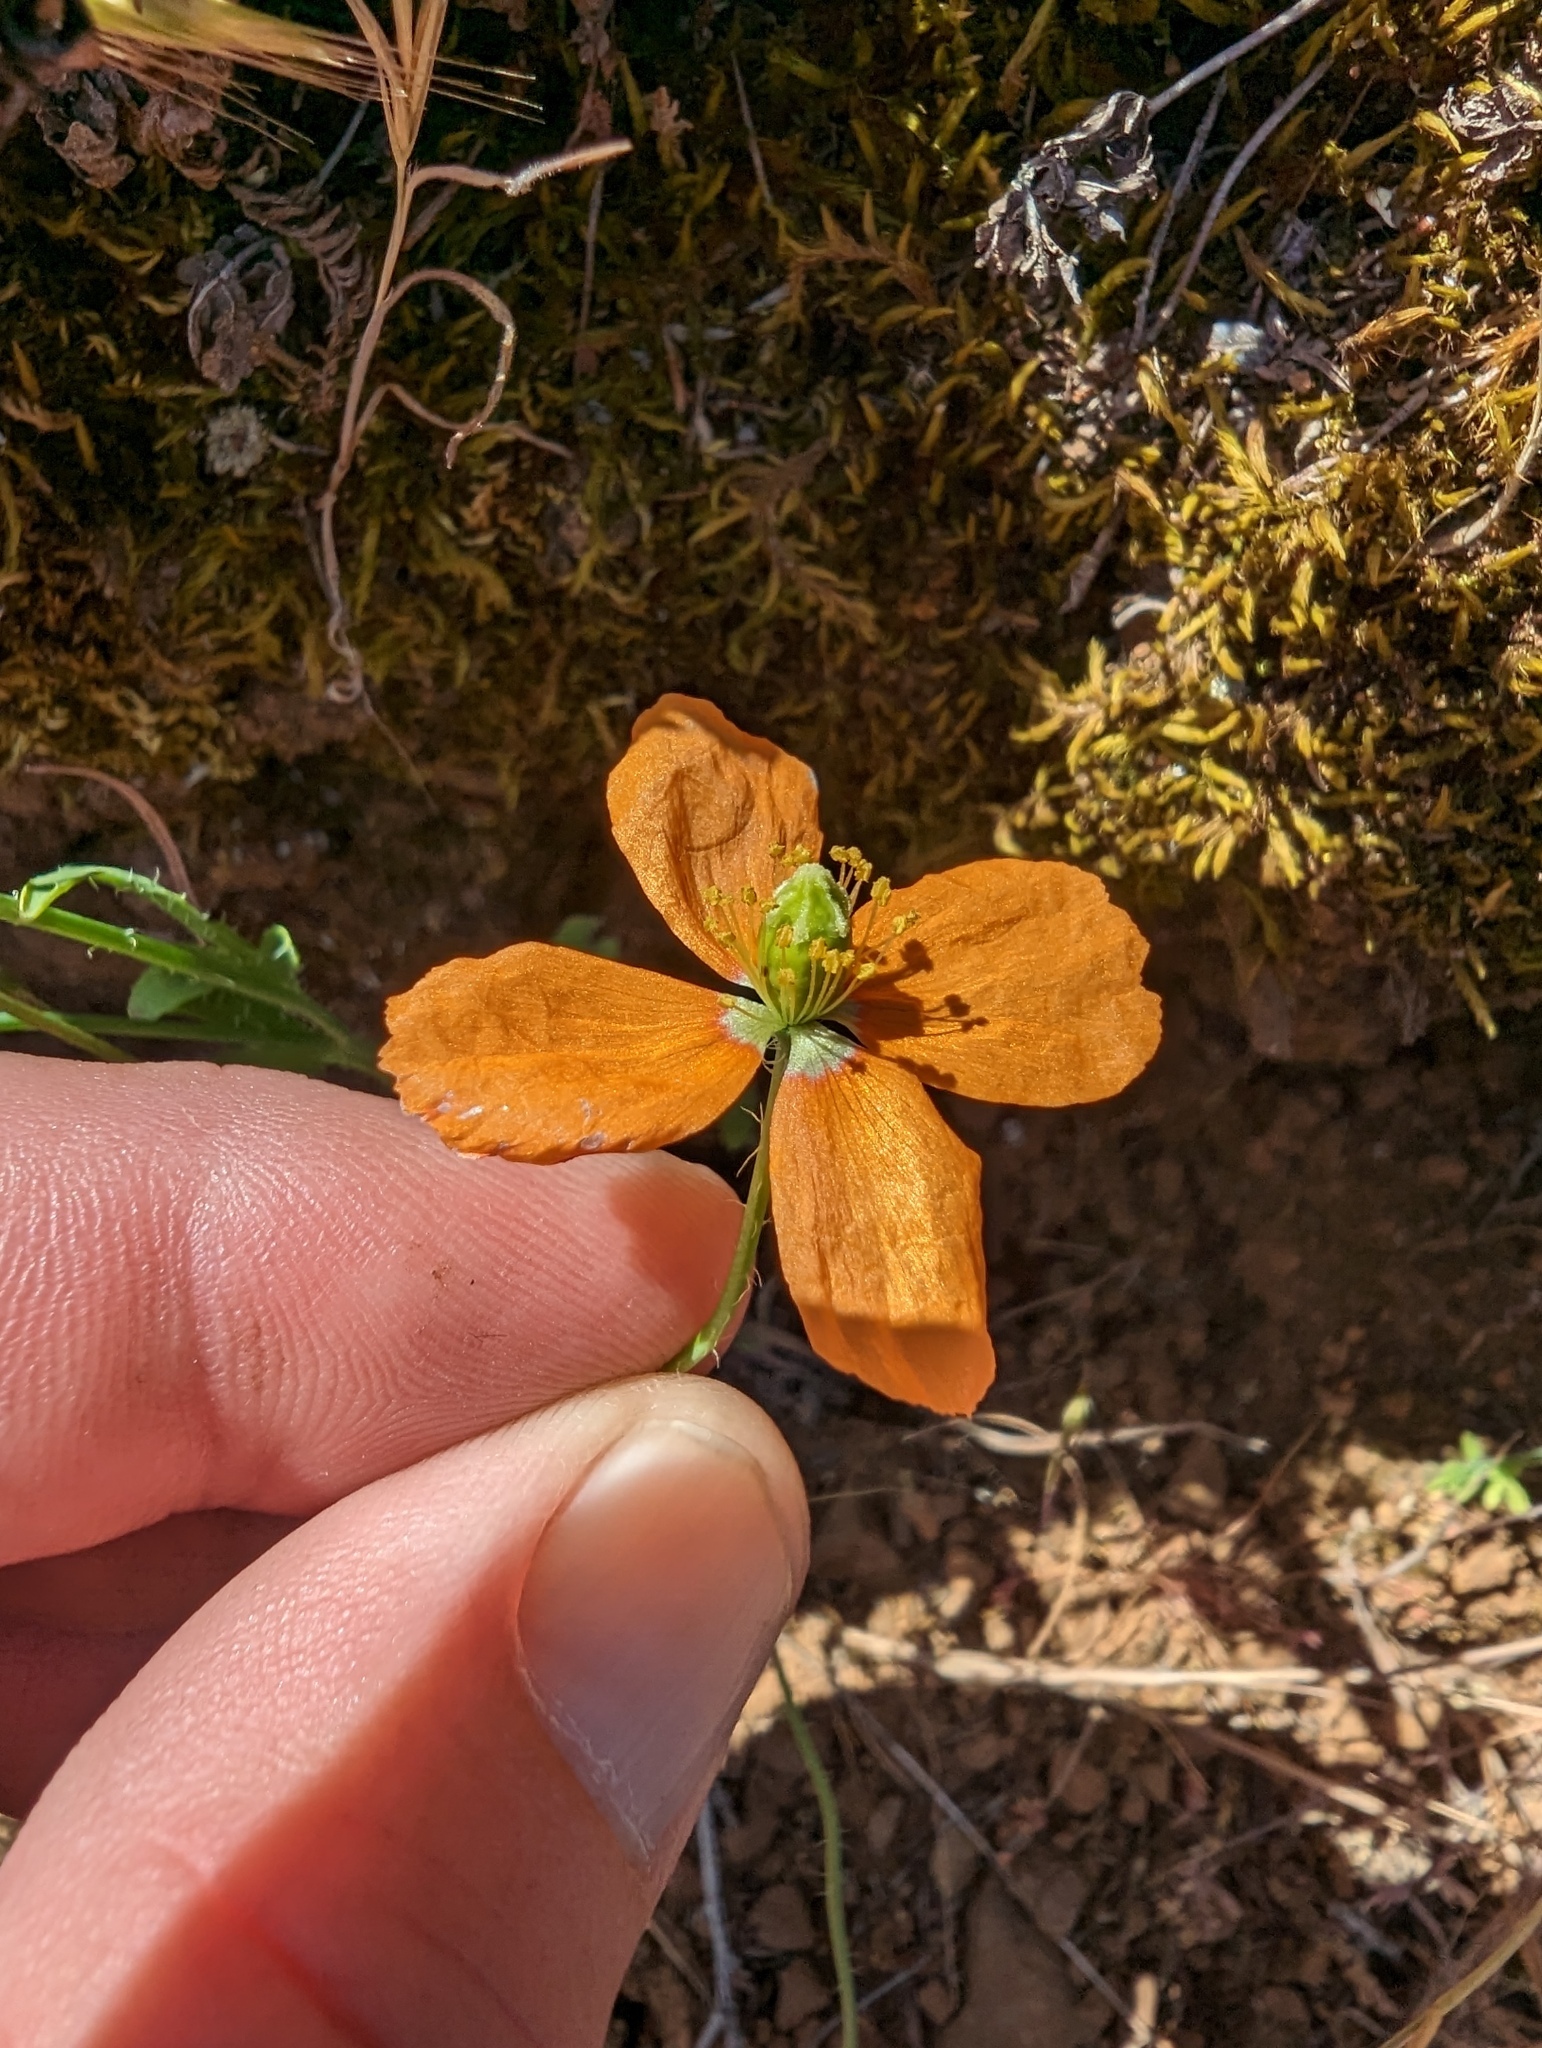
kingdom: Plantae
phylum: Tracheophyta
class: Magnoliopsida
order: Ranunculales
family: Papaveraceae
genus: Papaver
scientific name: Papaver californicum
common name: Fire poppy
